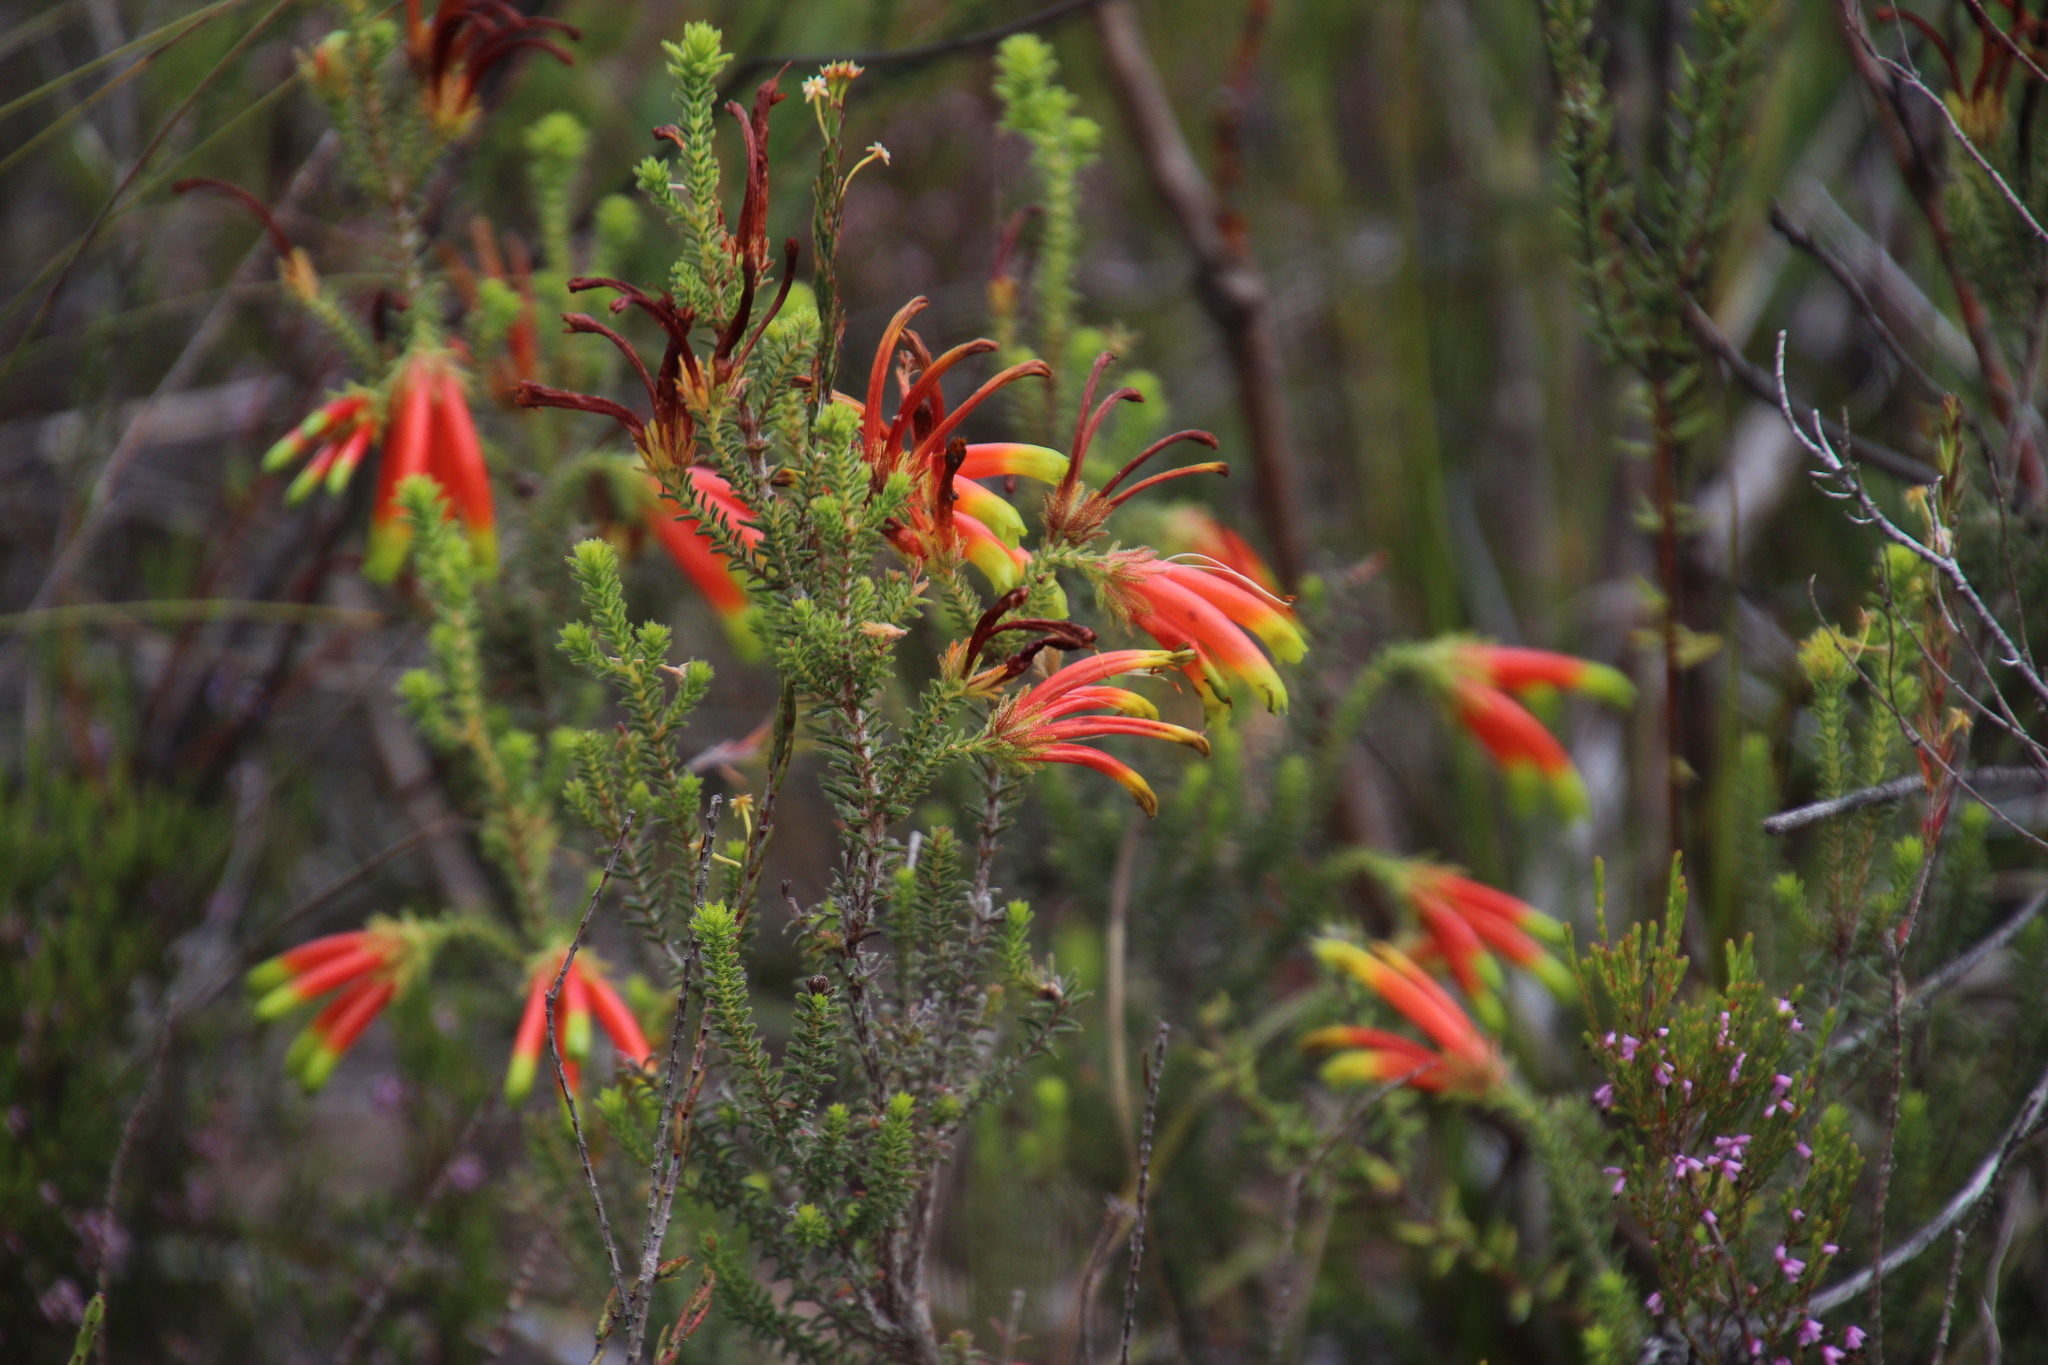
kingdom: Plantae
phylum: Tracheophyta
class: Magnoliopsida
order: Ericales
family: Ericaceae
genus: Erica
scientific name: Erica croceovirens
